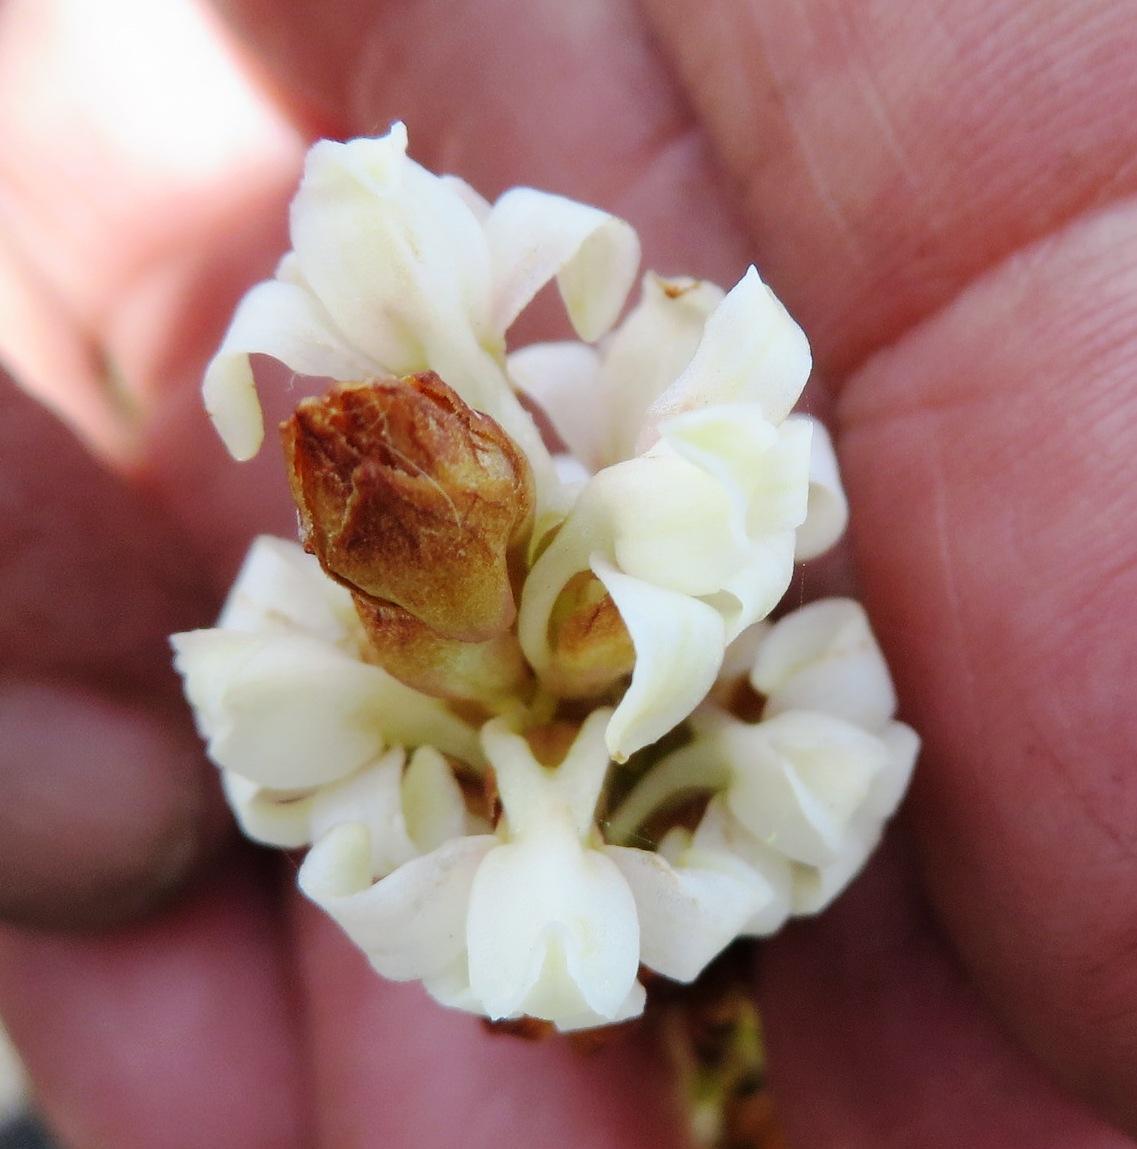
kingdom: Plantae
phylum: Tracheophyta
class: Liliopsida
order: Asparagales
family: Orchidaceae
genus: Satyrium
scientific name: Satyrium stenopetalum
